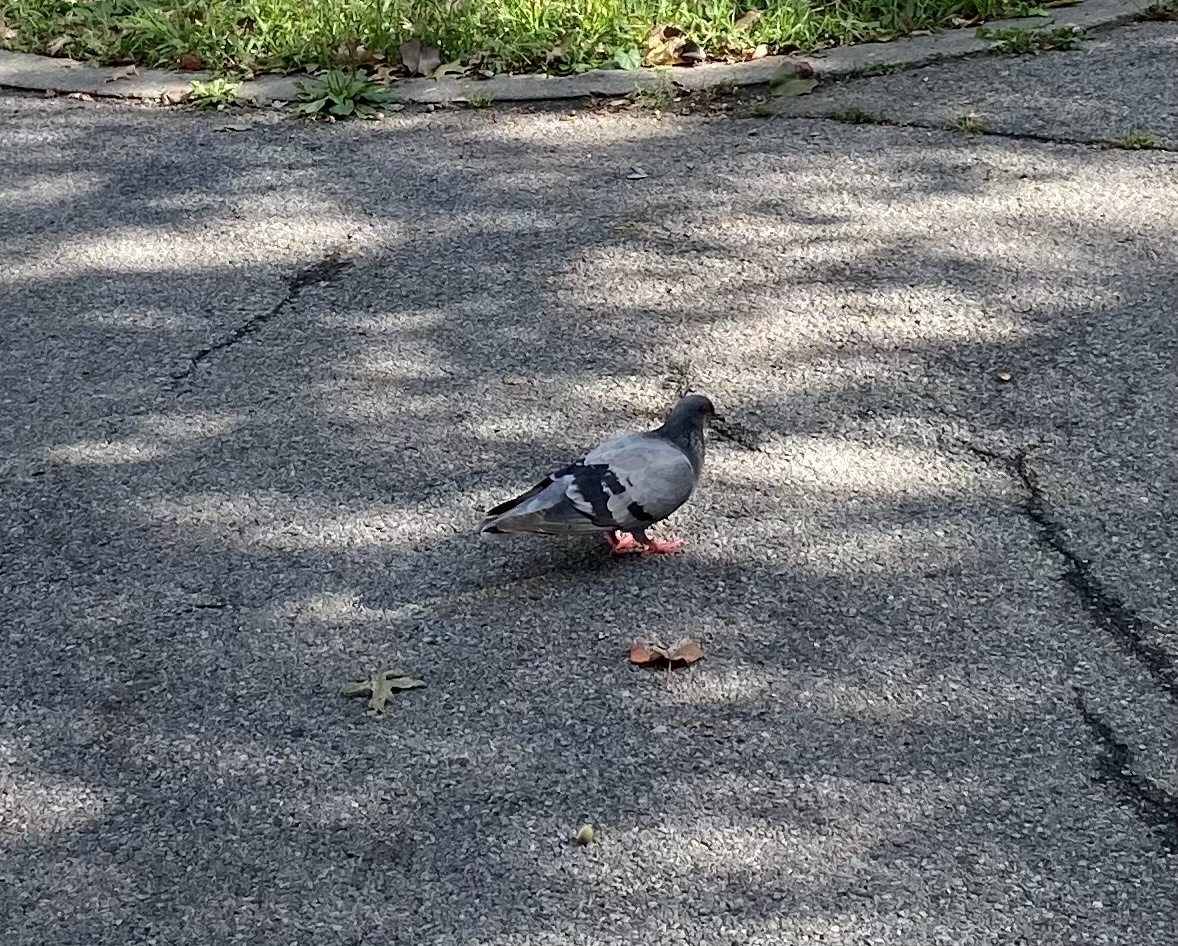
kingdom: Animalia
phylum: Chordata
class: Aves
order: Columbiformes
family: Columbidae
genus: Columba
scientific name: Columba livia
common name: Rock pigeon
